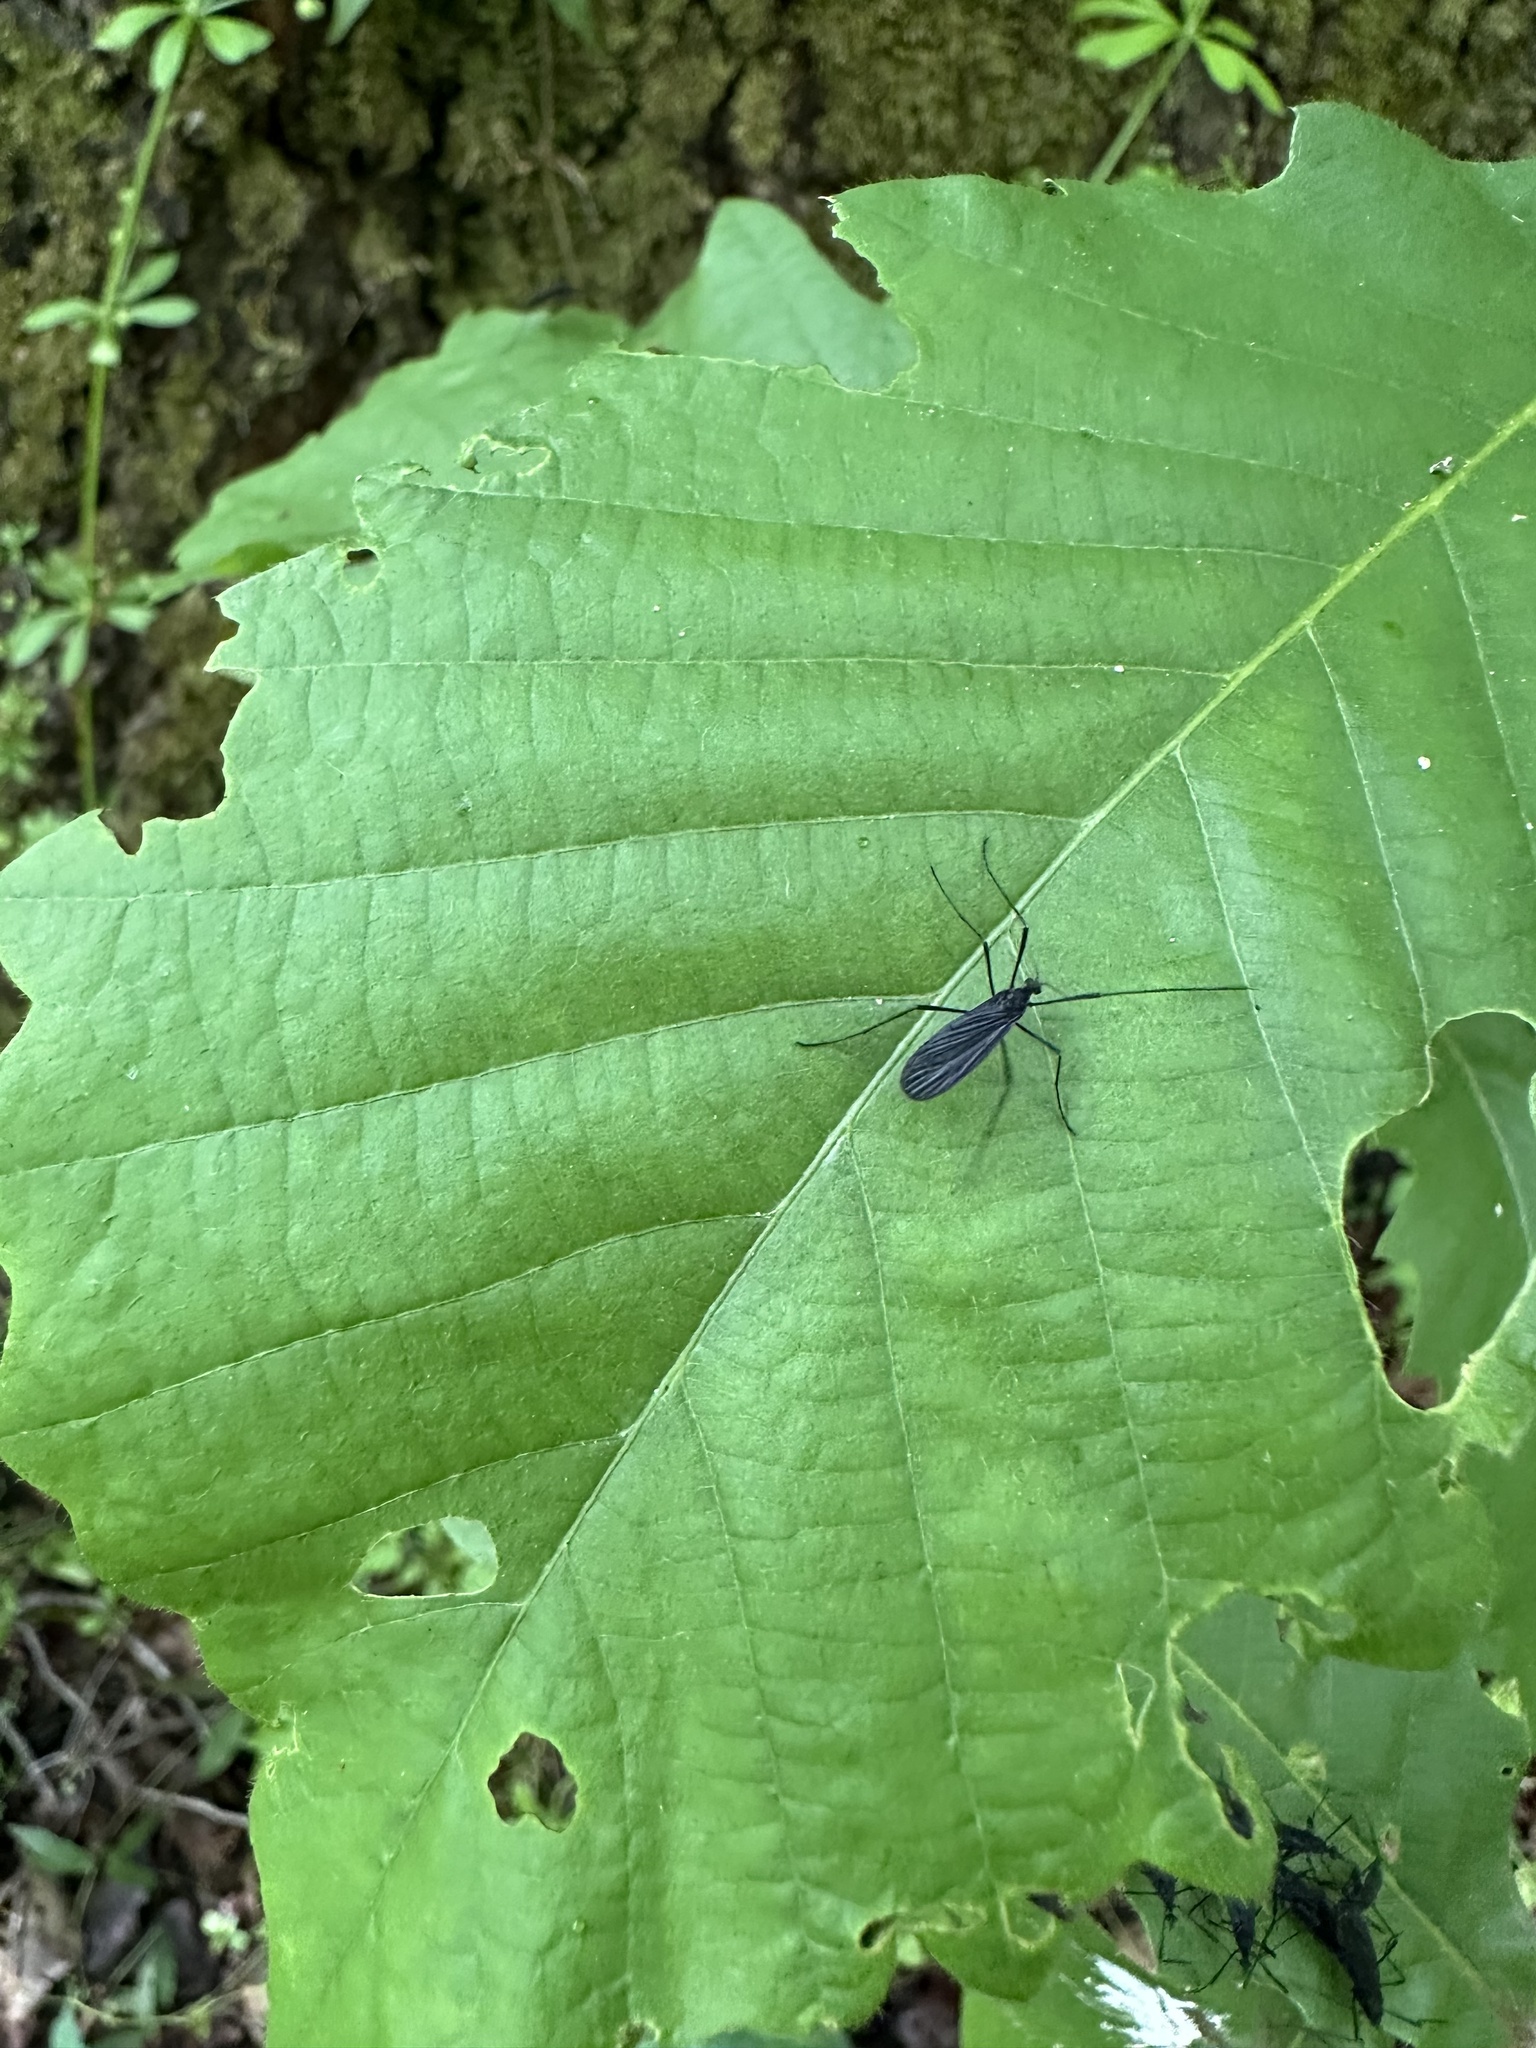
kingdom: Animalia
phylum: Arthropoda
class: Insecta
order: Diptera
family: Limoniidae
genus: Eugnophomyia
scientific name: Eugnophomyia luctuosa
